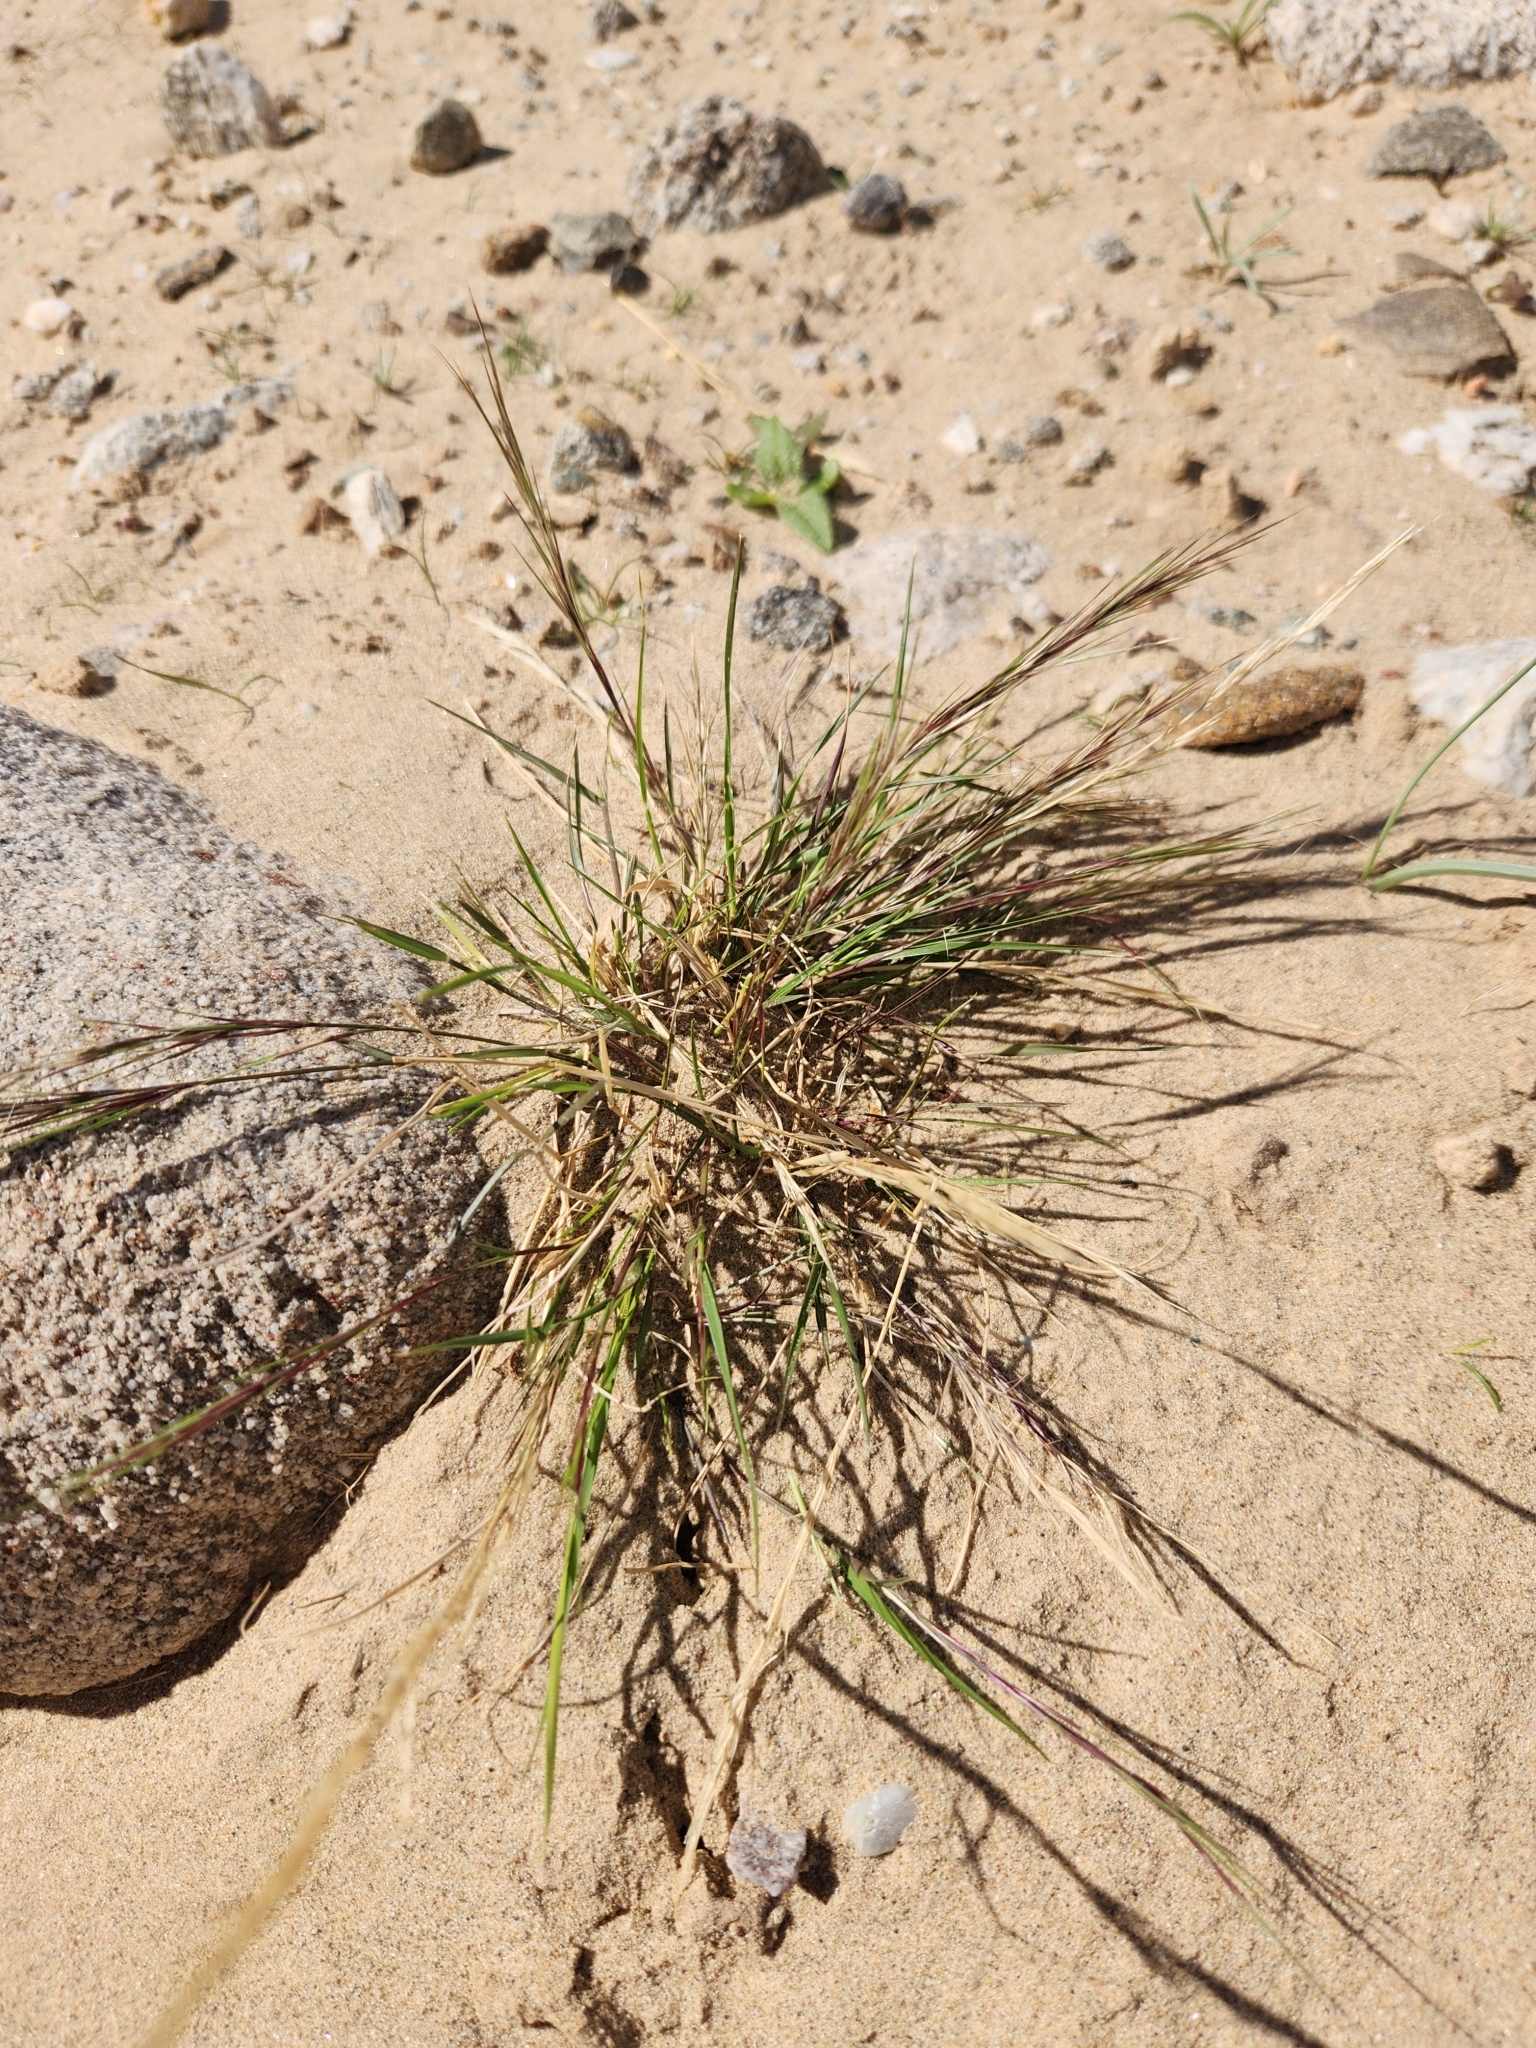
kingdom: Plantae
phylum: Tracheophyta
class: Liliopsida
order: Poales
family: Poaceae
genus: Aristida
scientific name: Aristida adscensionis
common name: Sixweeks threeawn
